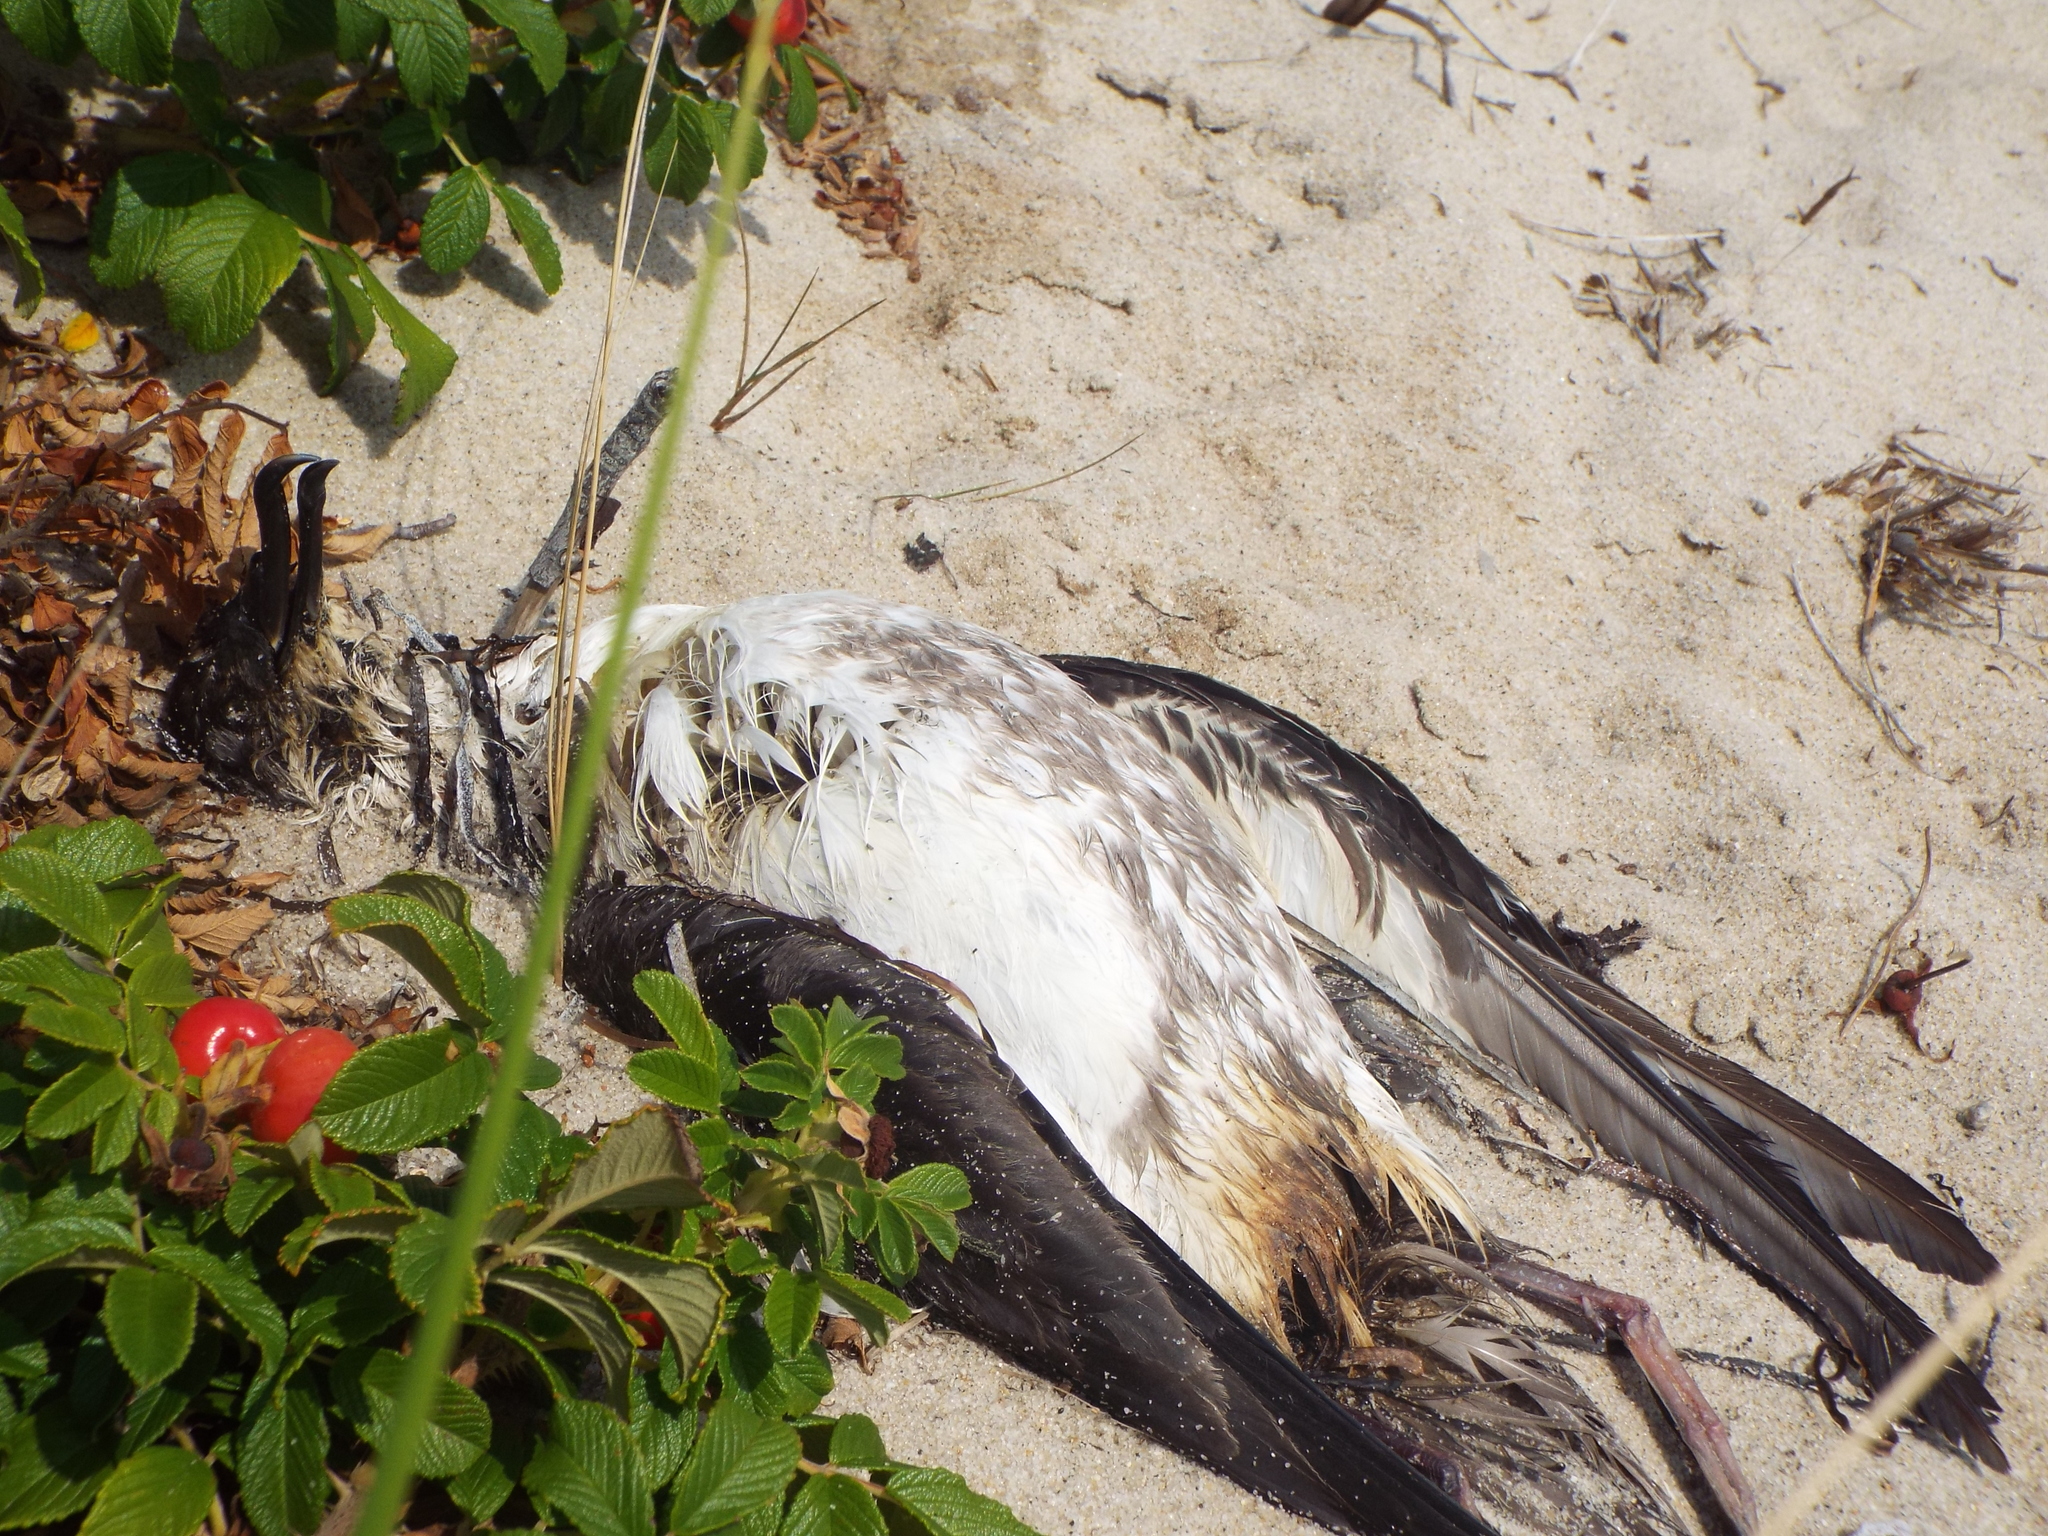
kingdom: Animalia
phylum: Chordata
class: Aves
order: Procellariiformes
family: Procellariidae
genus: Puffinus
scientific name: Puffinus gravis
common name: Great shearwater
